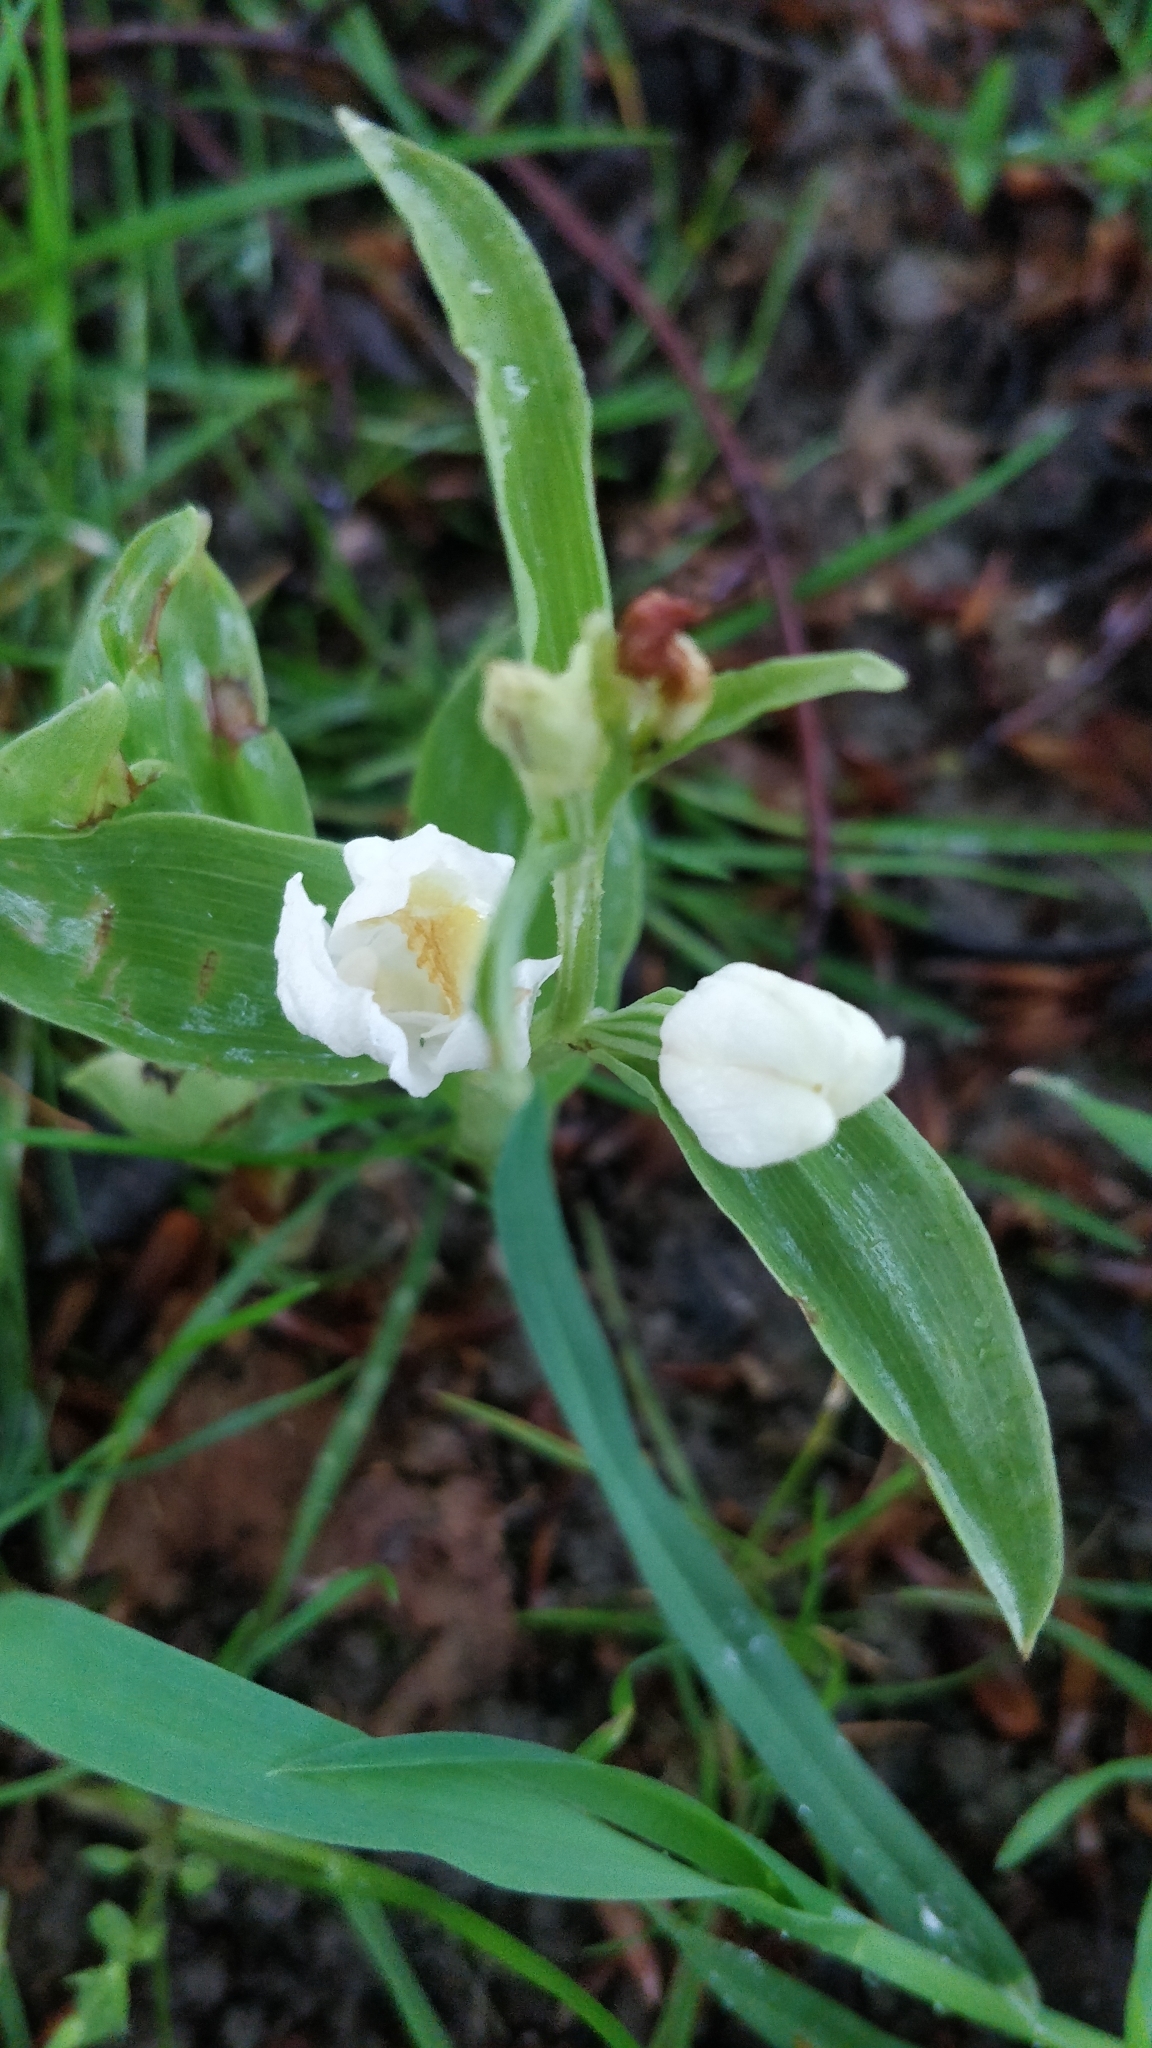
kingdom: Plantae
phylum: Tracheophyta
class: Liliopsida
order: Asparagales
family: Orchidaceae
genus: Cephalanthera
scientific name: Cephalanthera damasonium
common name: White helleborine
